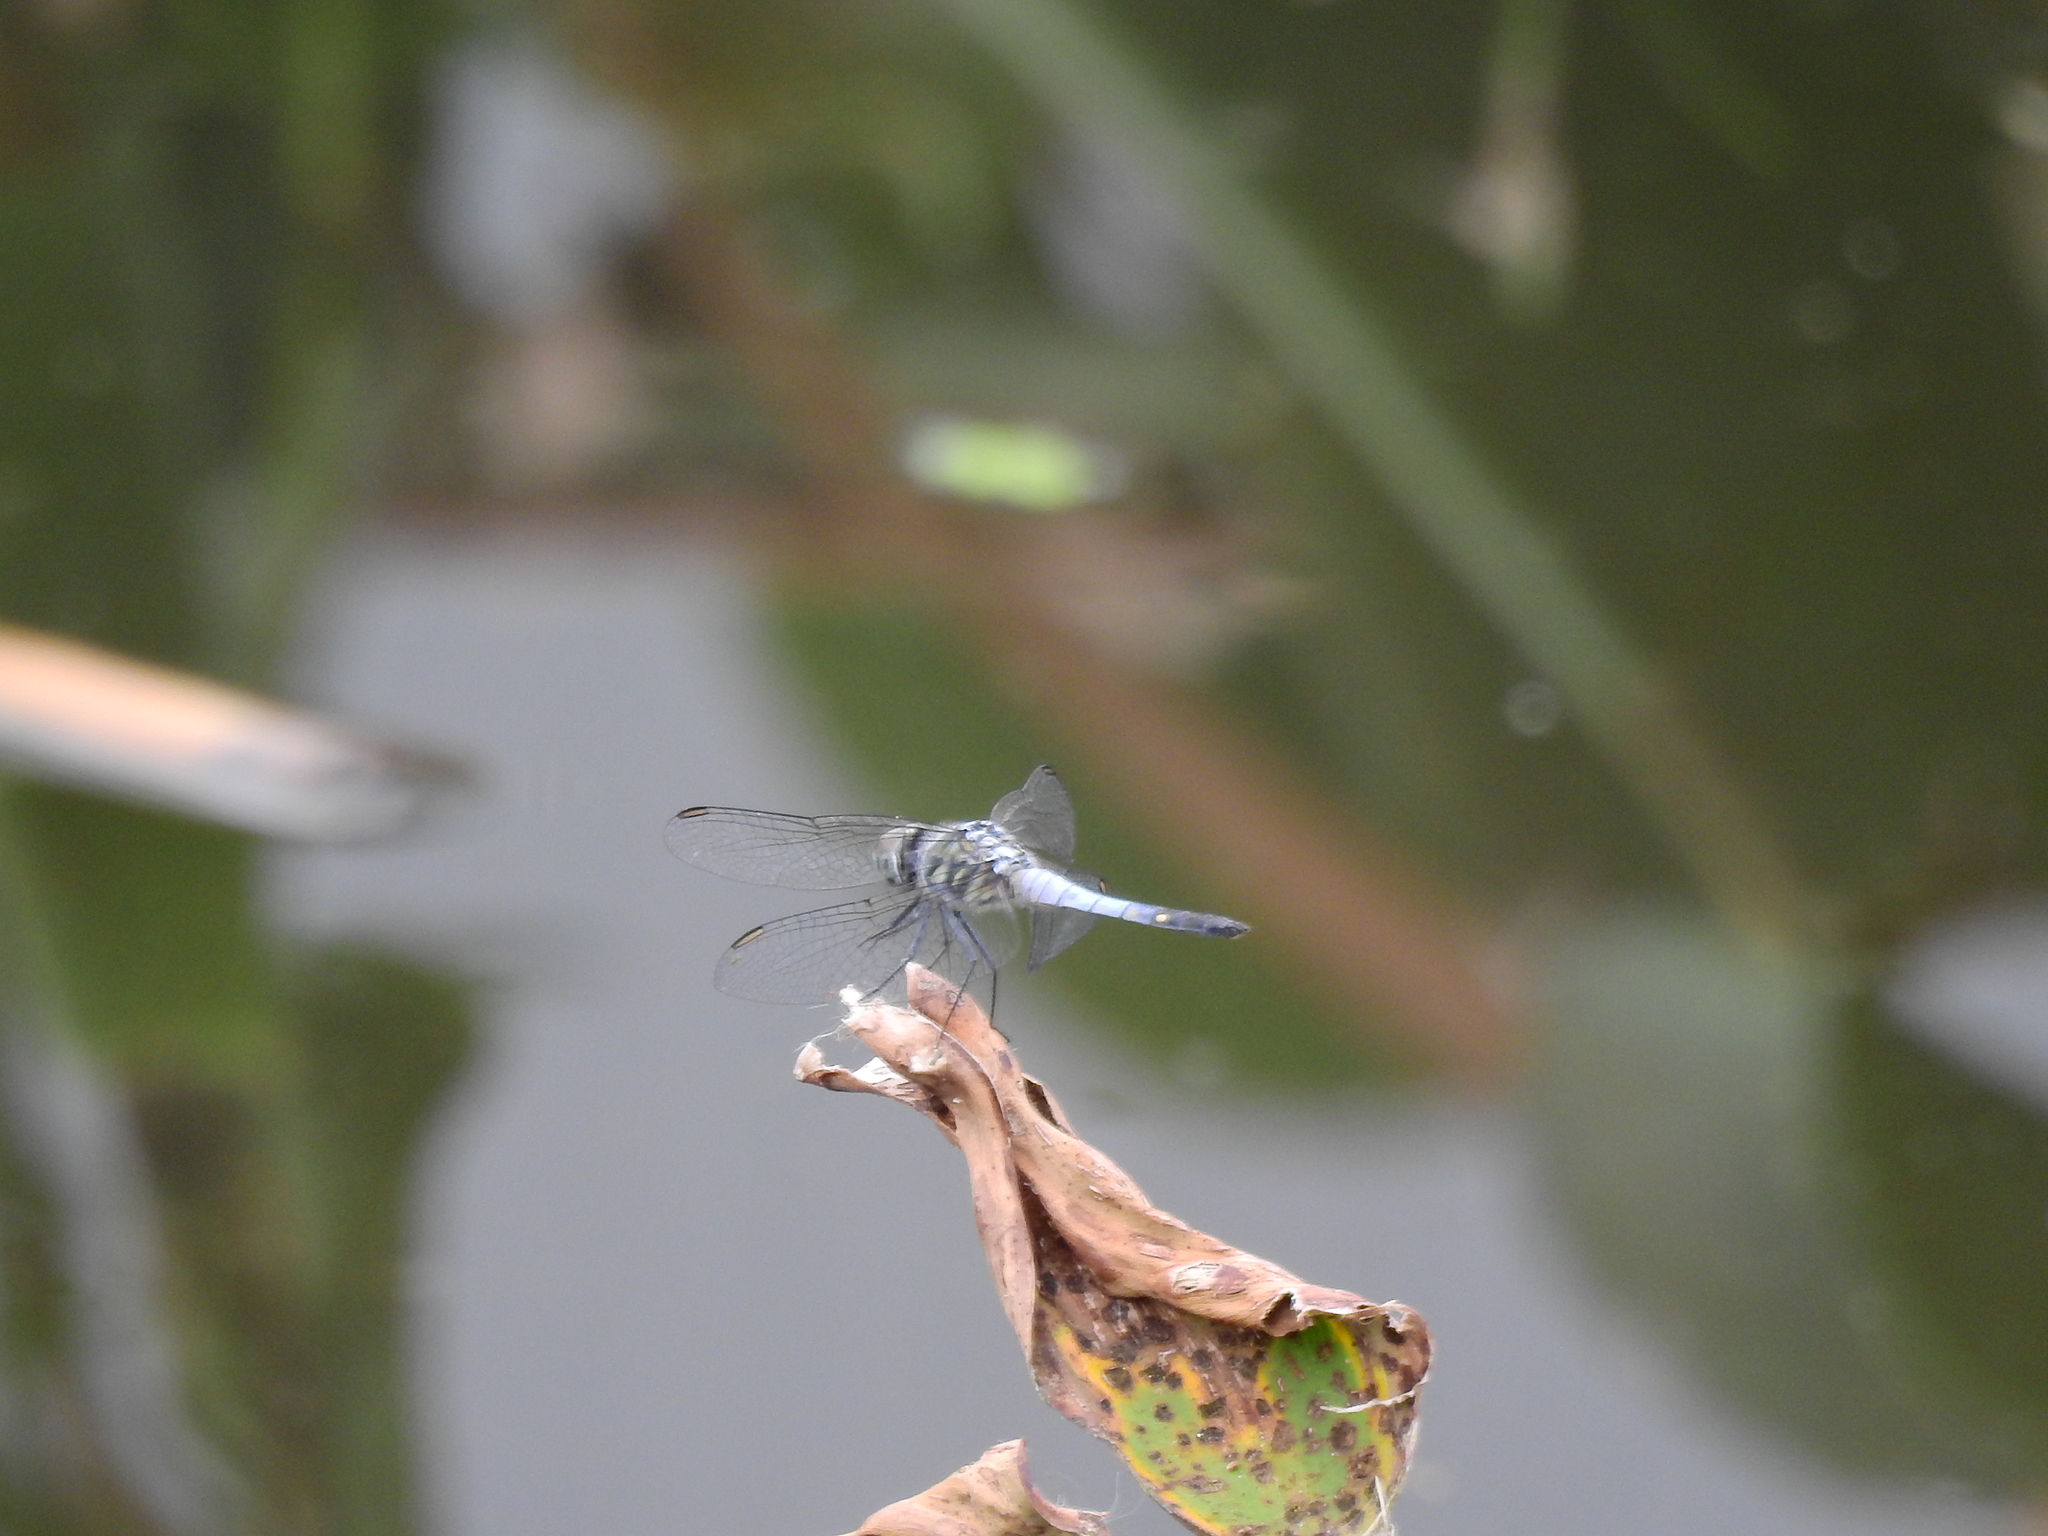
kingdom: Animalia
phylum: Arthropoda
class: Insecta
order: Odonata
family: Libellulidae
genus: Brachydiplax
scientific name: Brachydiplax sobrina
